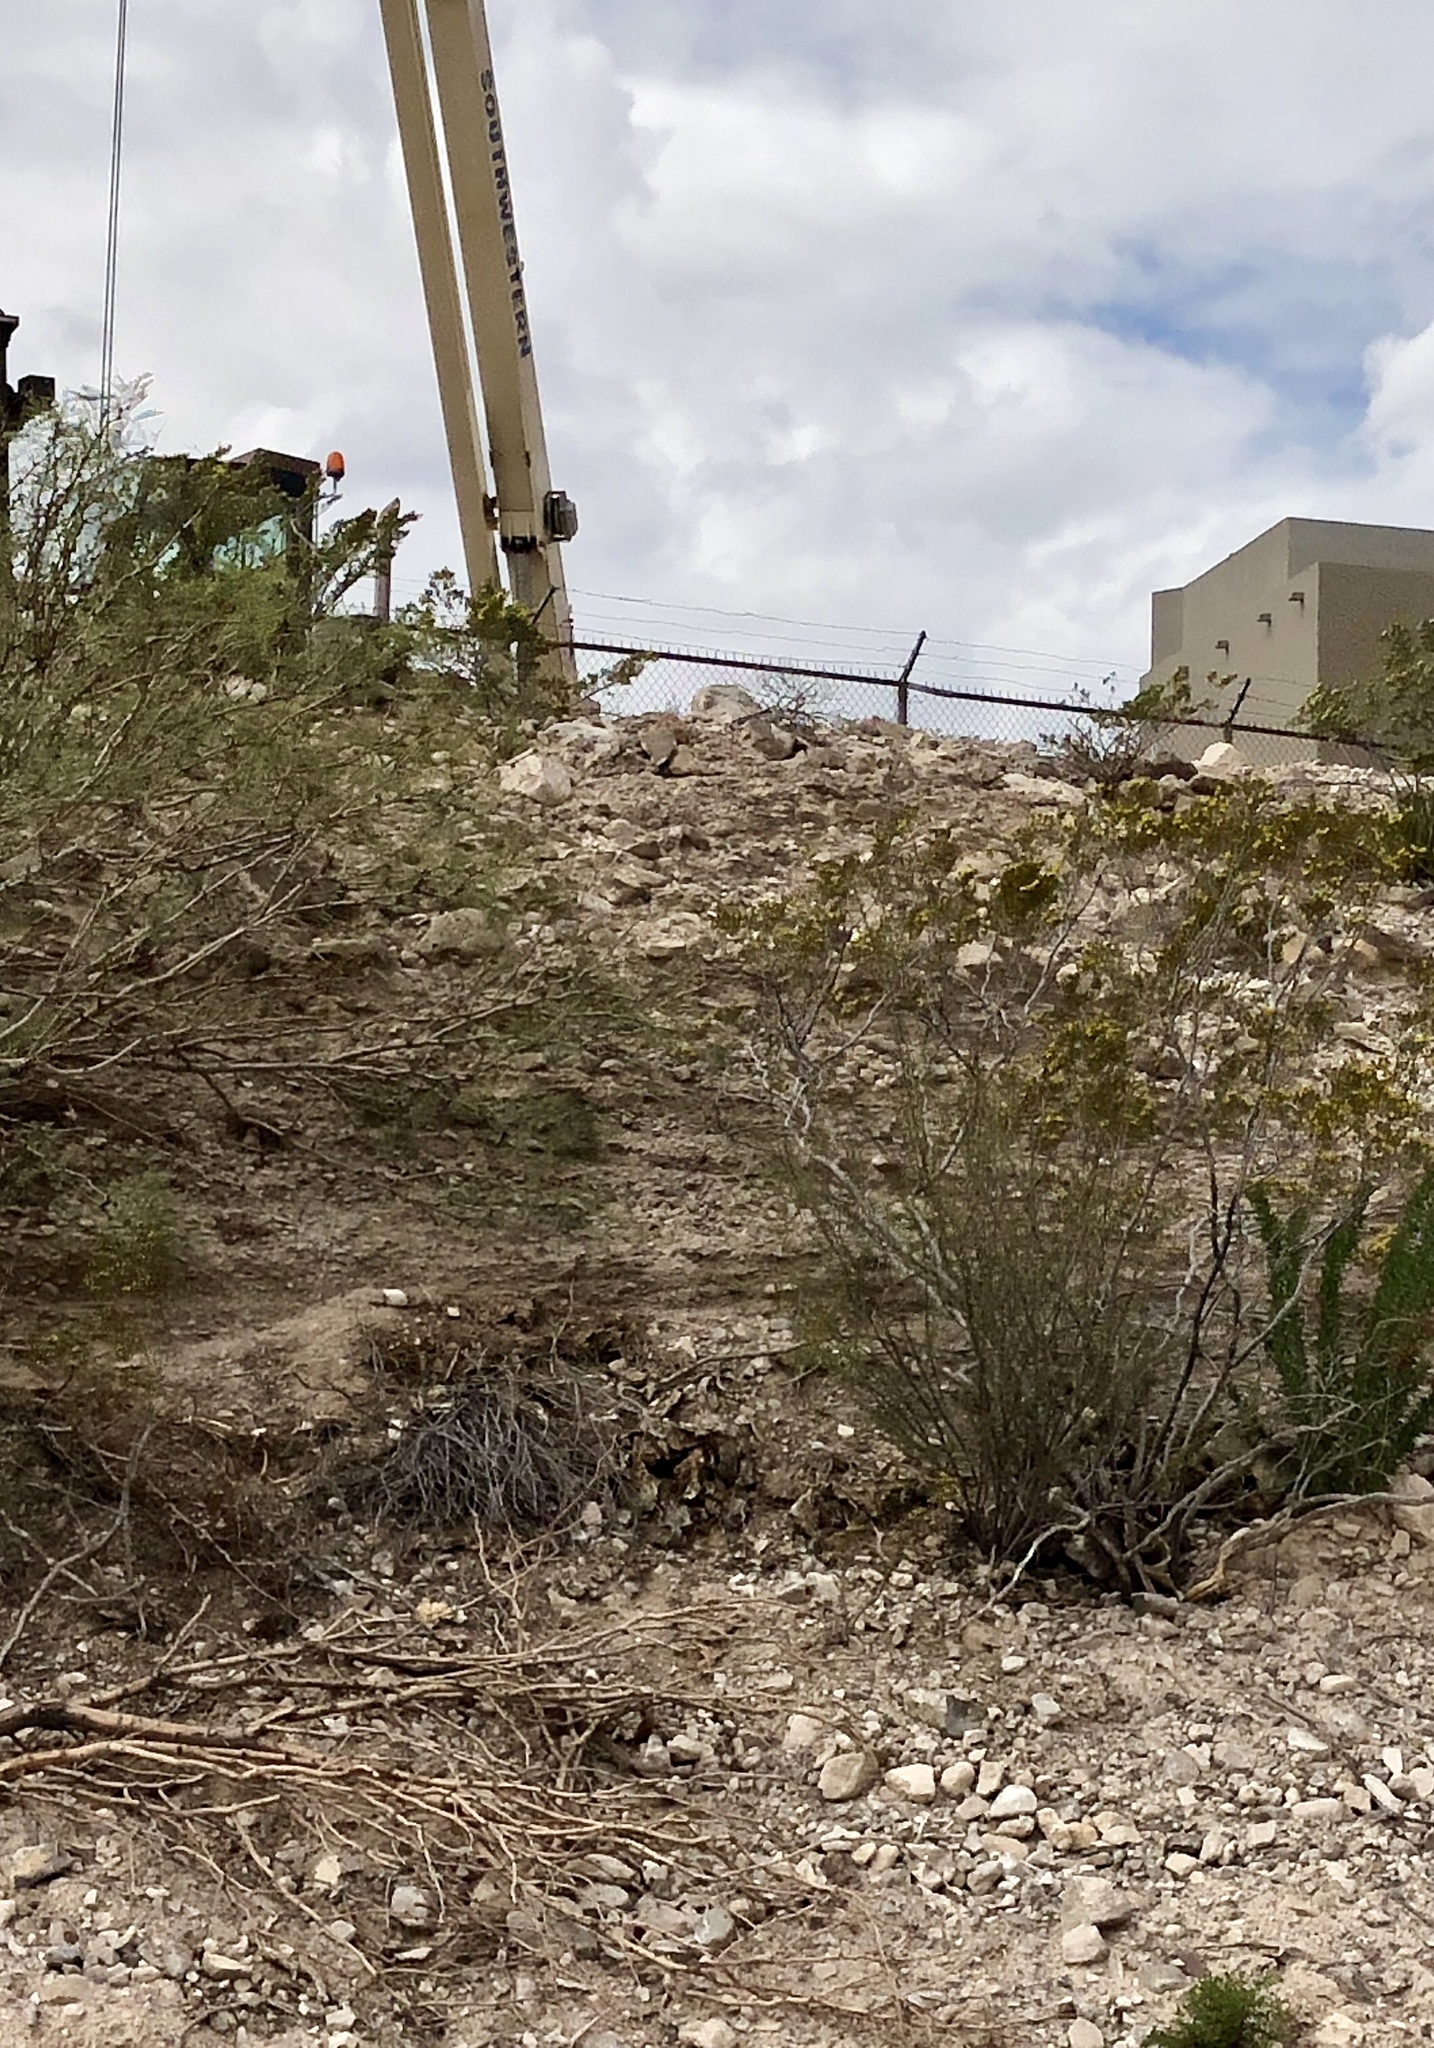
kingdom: Plantae
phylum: Tracheophyta
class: Magnoliopsida
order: Zygophyllales
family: Zygophyllaceae
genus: Larrea
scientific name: Larrea tridentata
